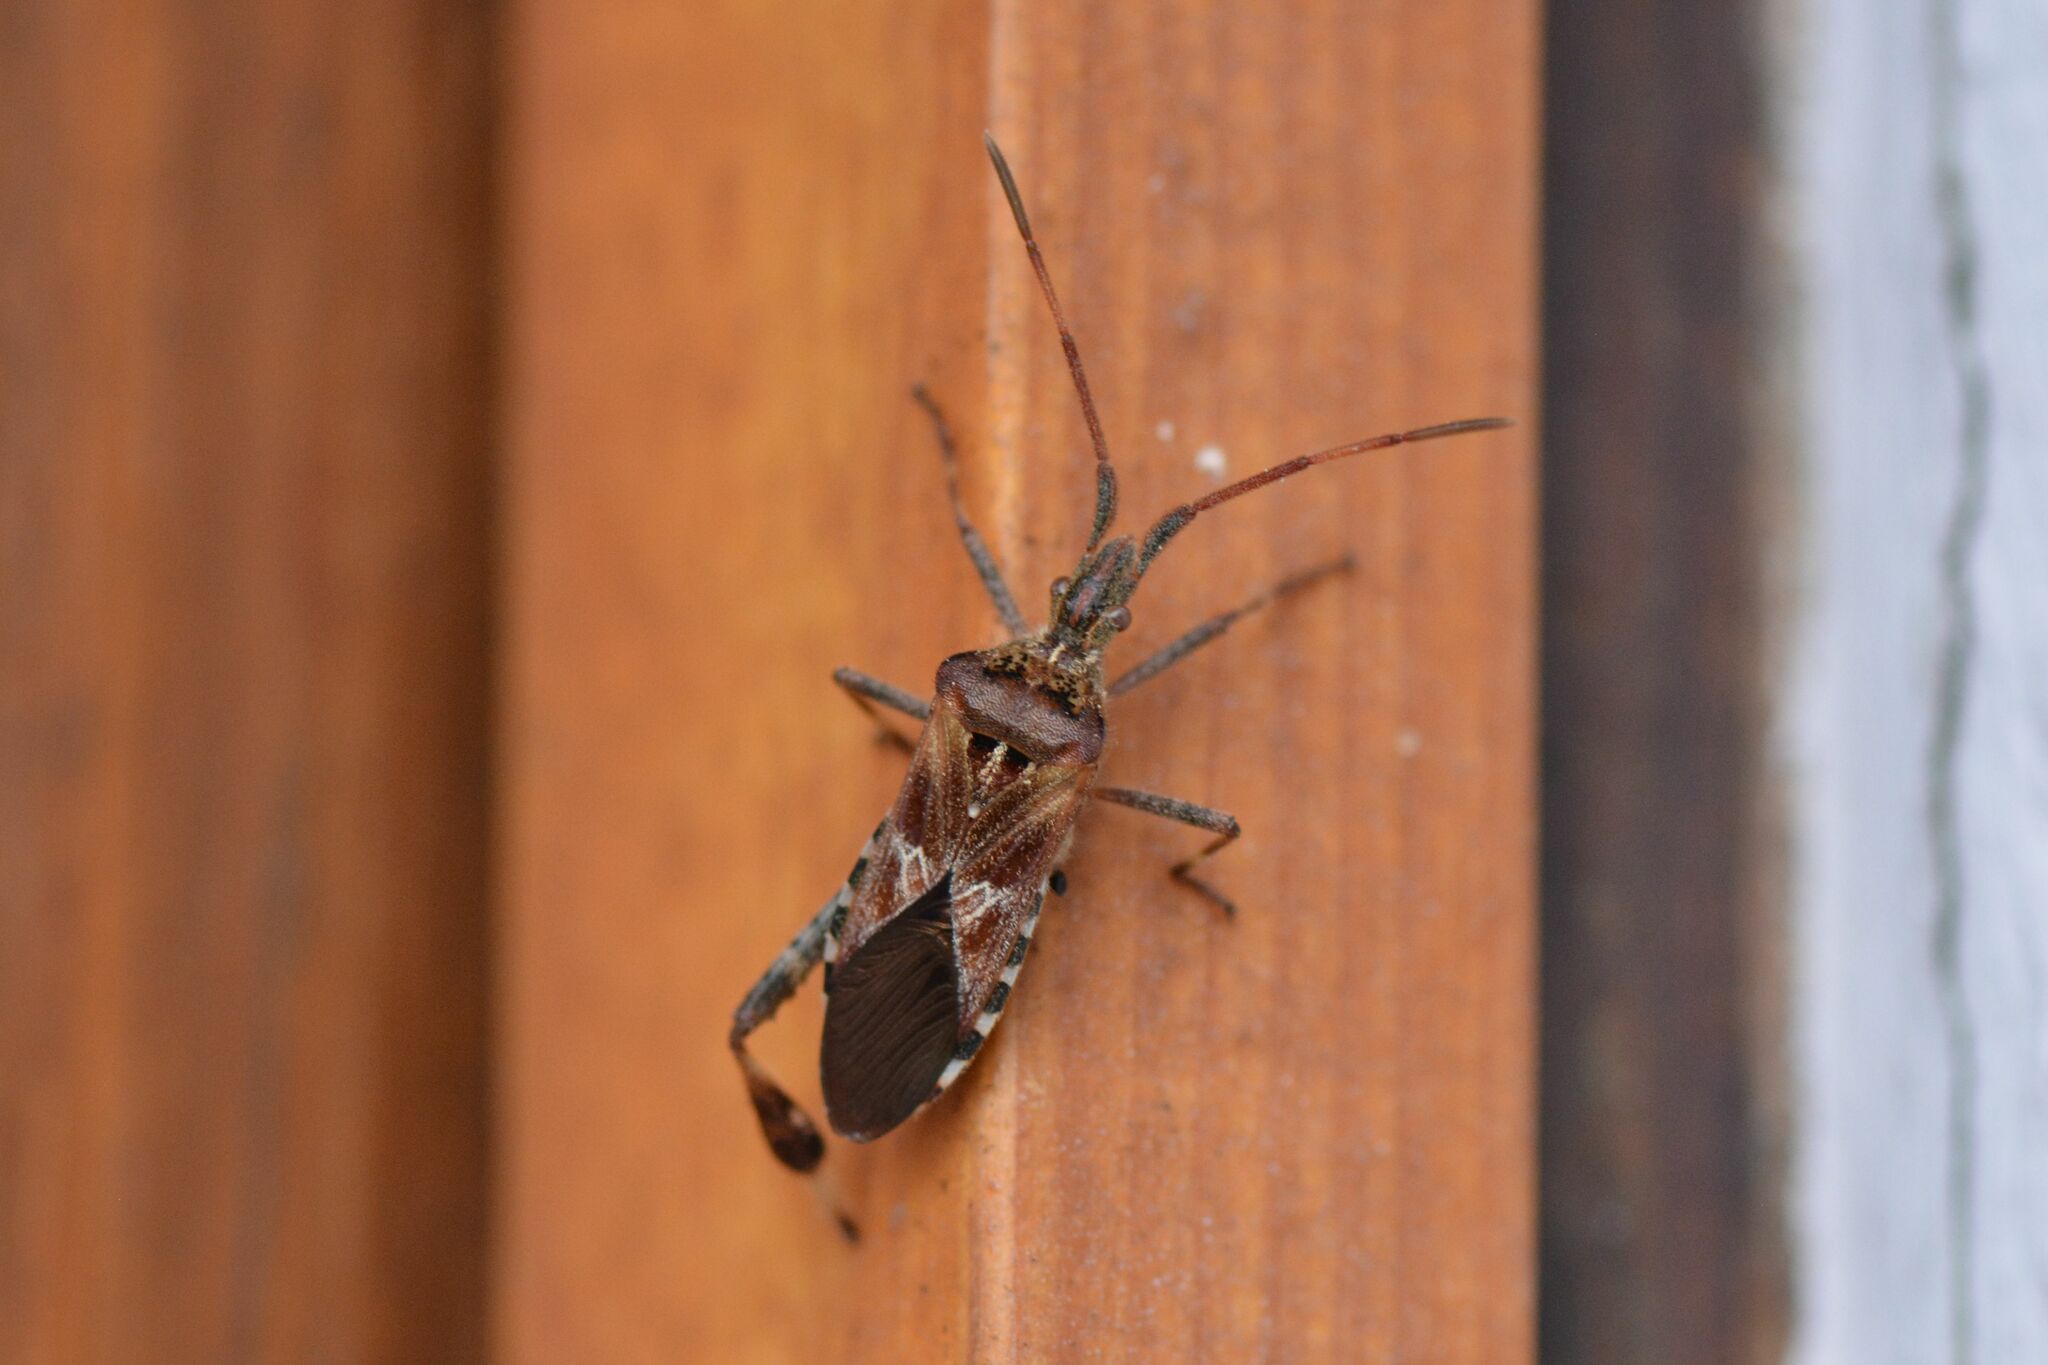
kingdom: Animalia
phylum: Arthropoda
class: Insecta
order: Hemiptera
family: Coreidae
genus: Leptoglossus
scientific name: Leptoglossus occidentalis
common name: Western conifer-seed bug
